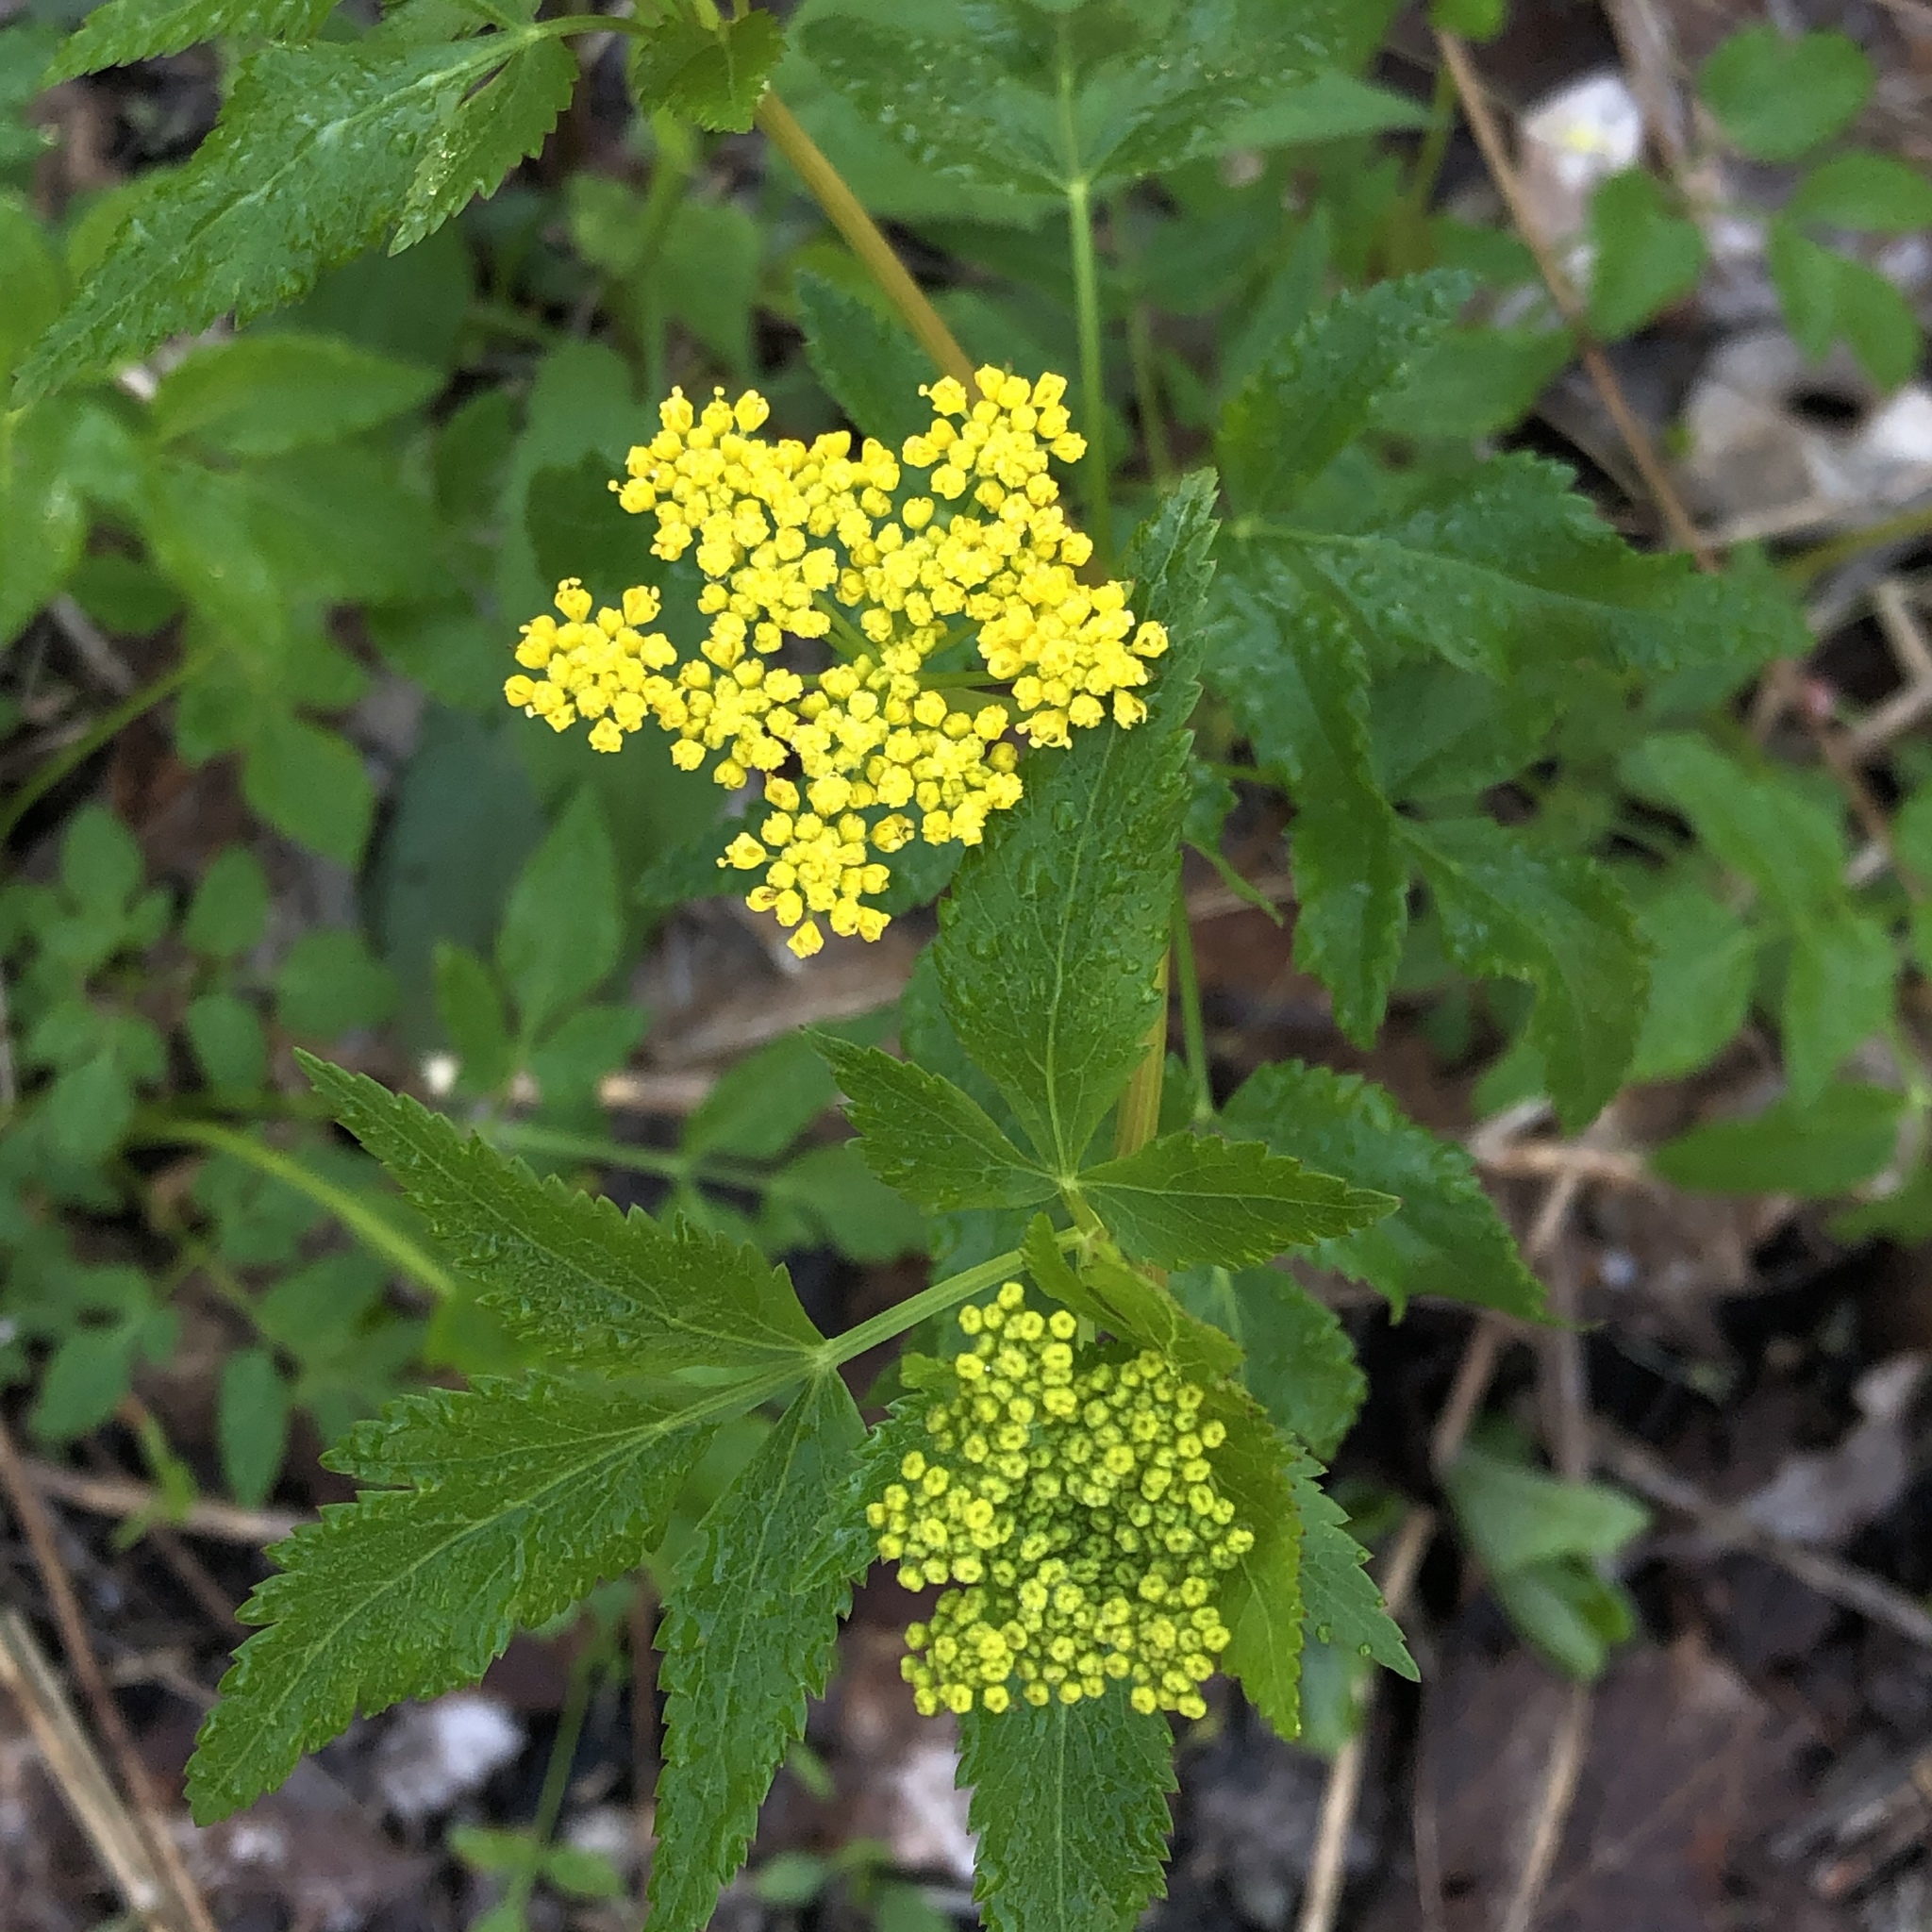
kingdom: Plantae
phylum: Tracheophyta
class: Magnoliopsida
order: Apiales
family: Apiaceae
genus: Zizia
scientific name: Zizia aurea
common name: Golden alexanders
